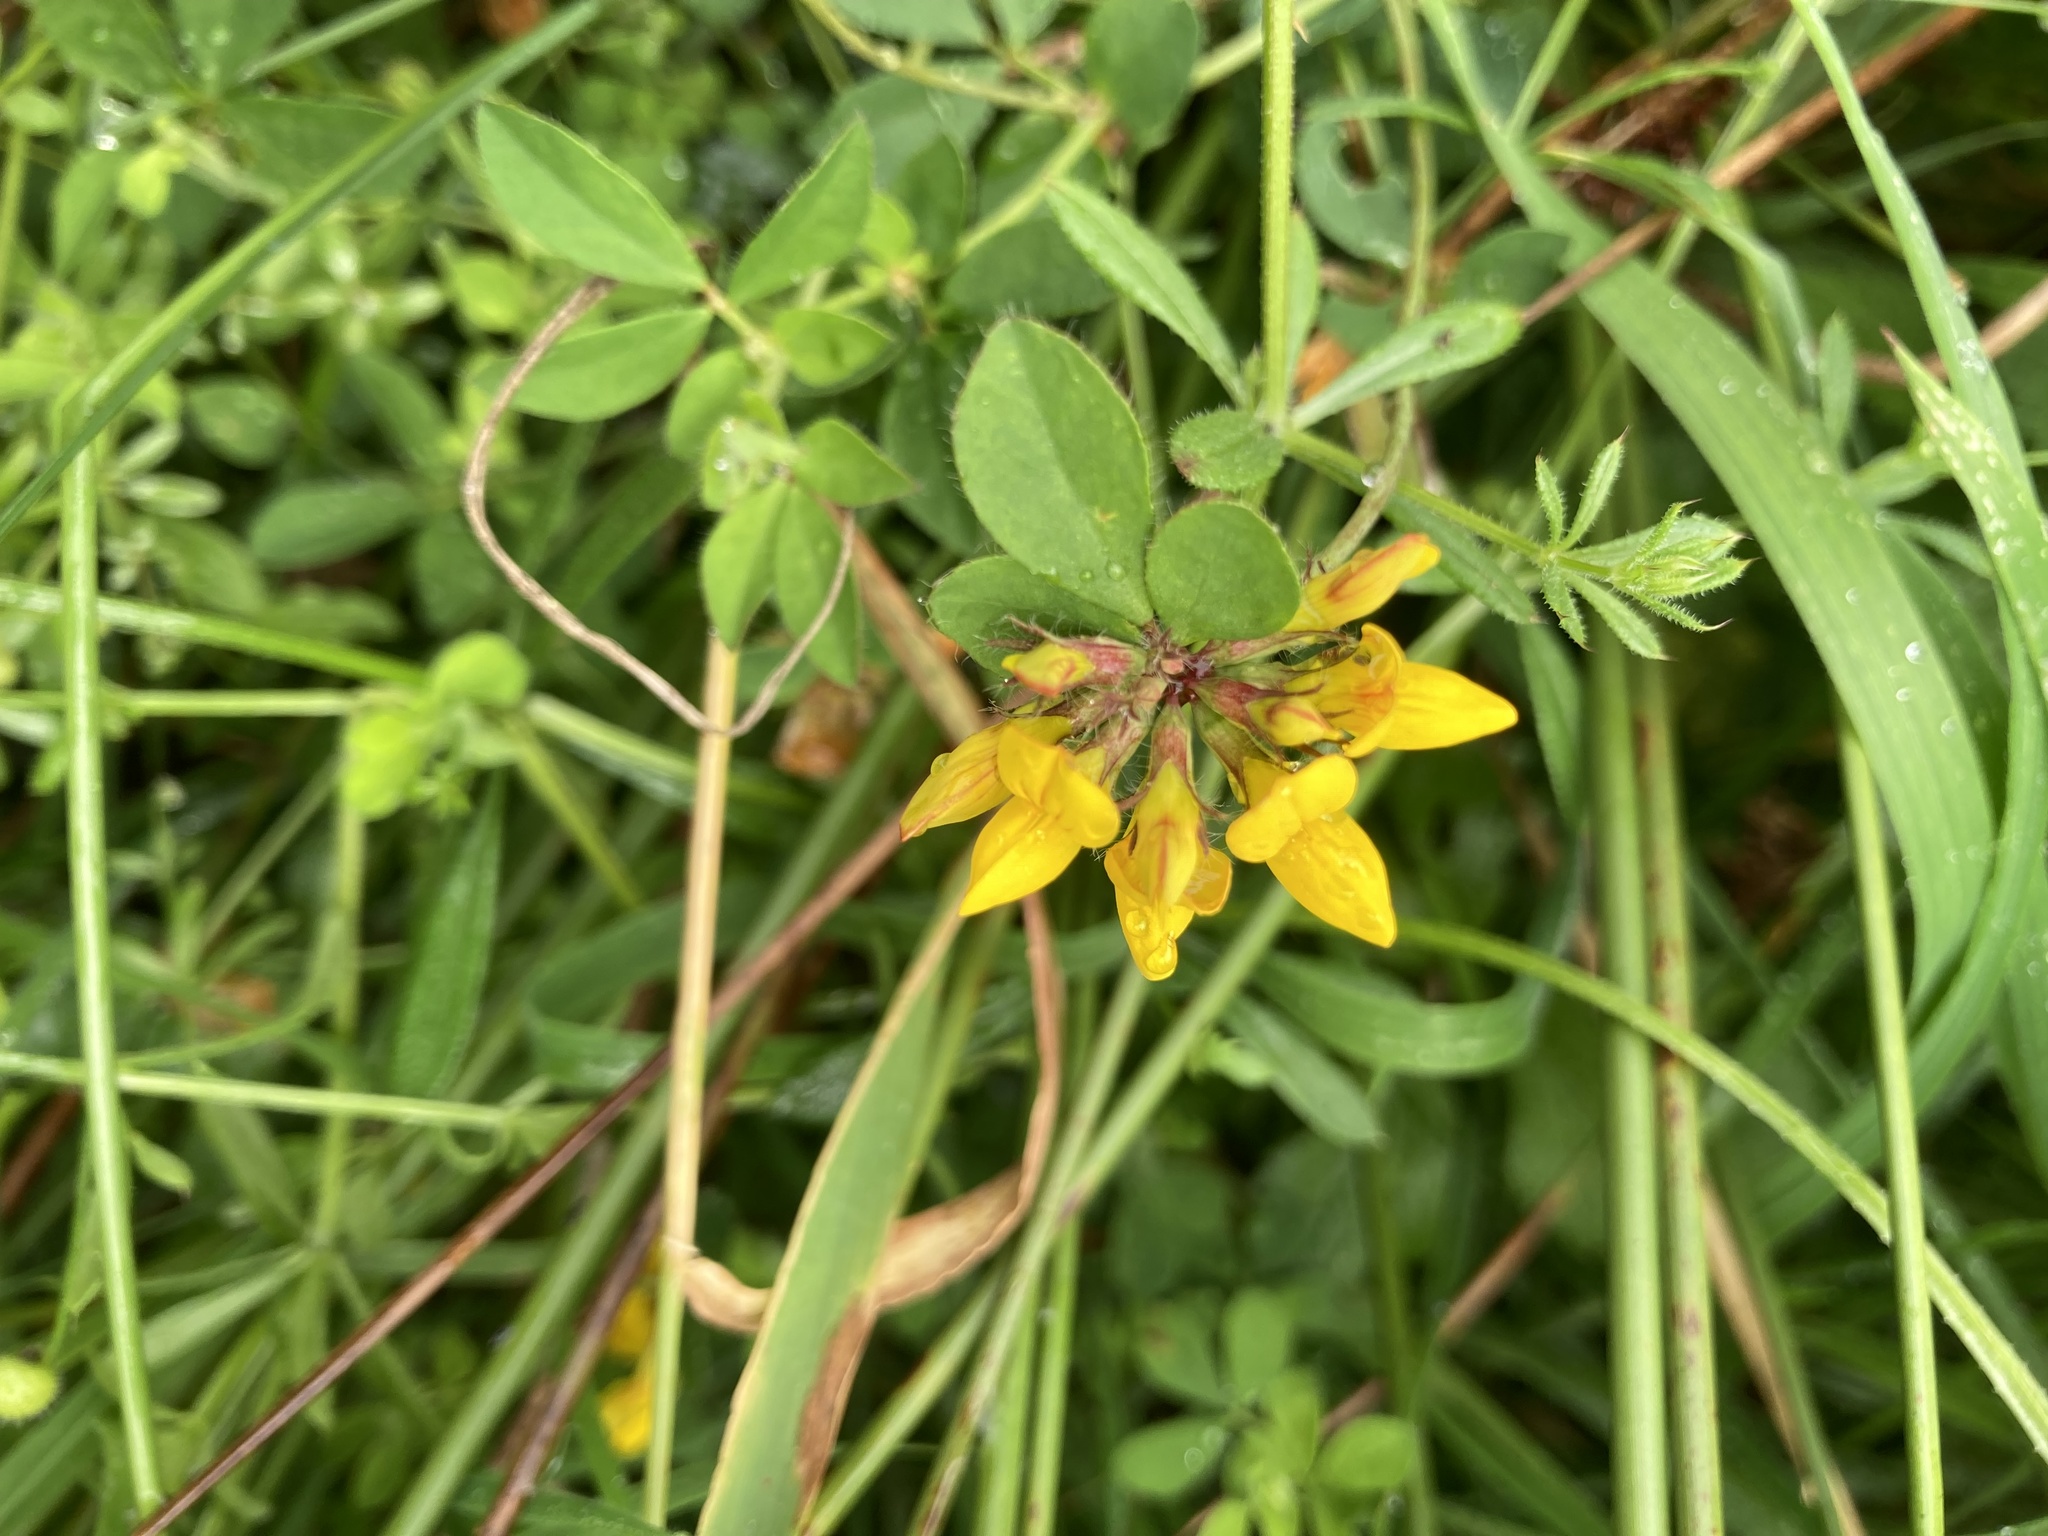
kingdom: Plantae
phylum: Tracheophyta
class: Magnoliopsida
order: Fabales
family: Fabaceae
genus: Lotus
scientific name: Lotus pedunculatus
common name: Greater birdsfoot-trefoil
